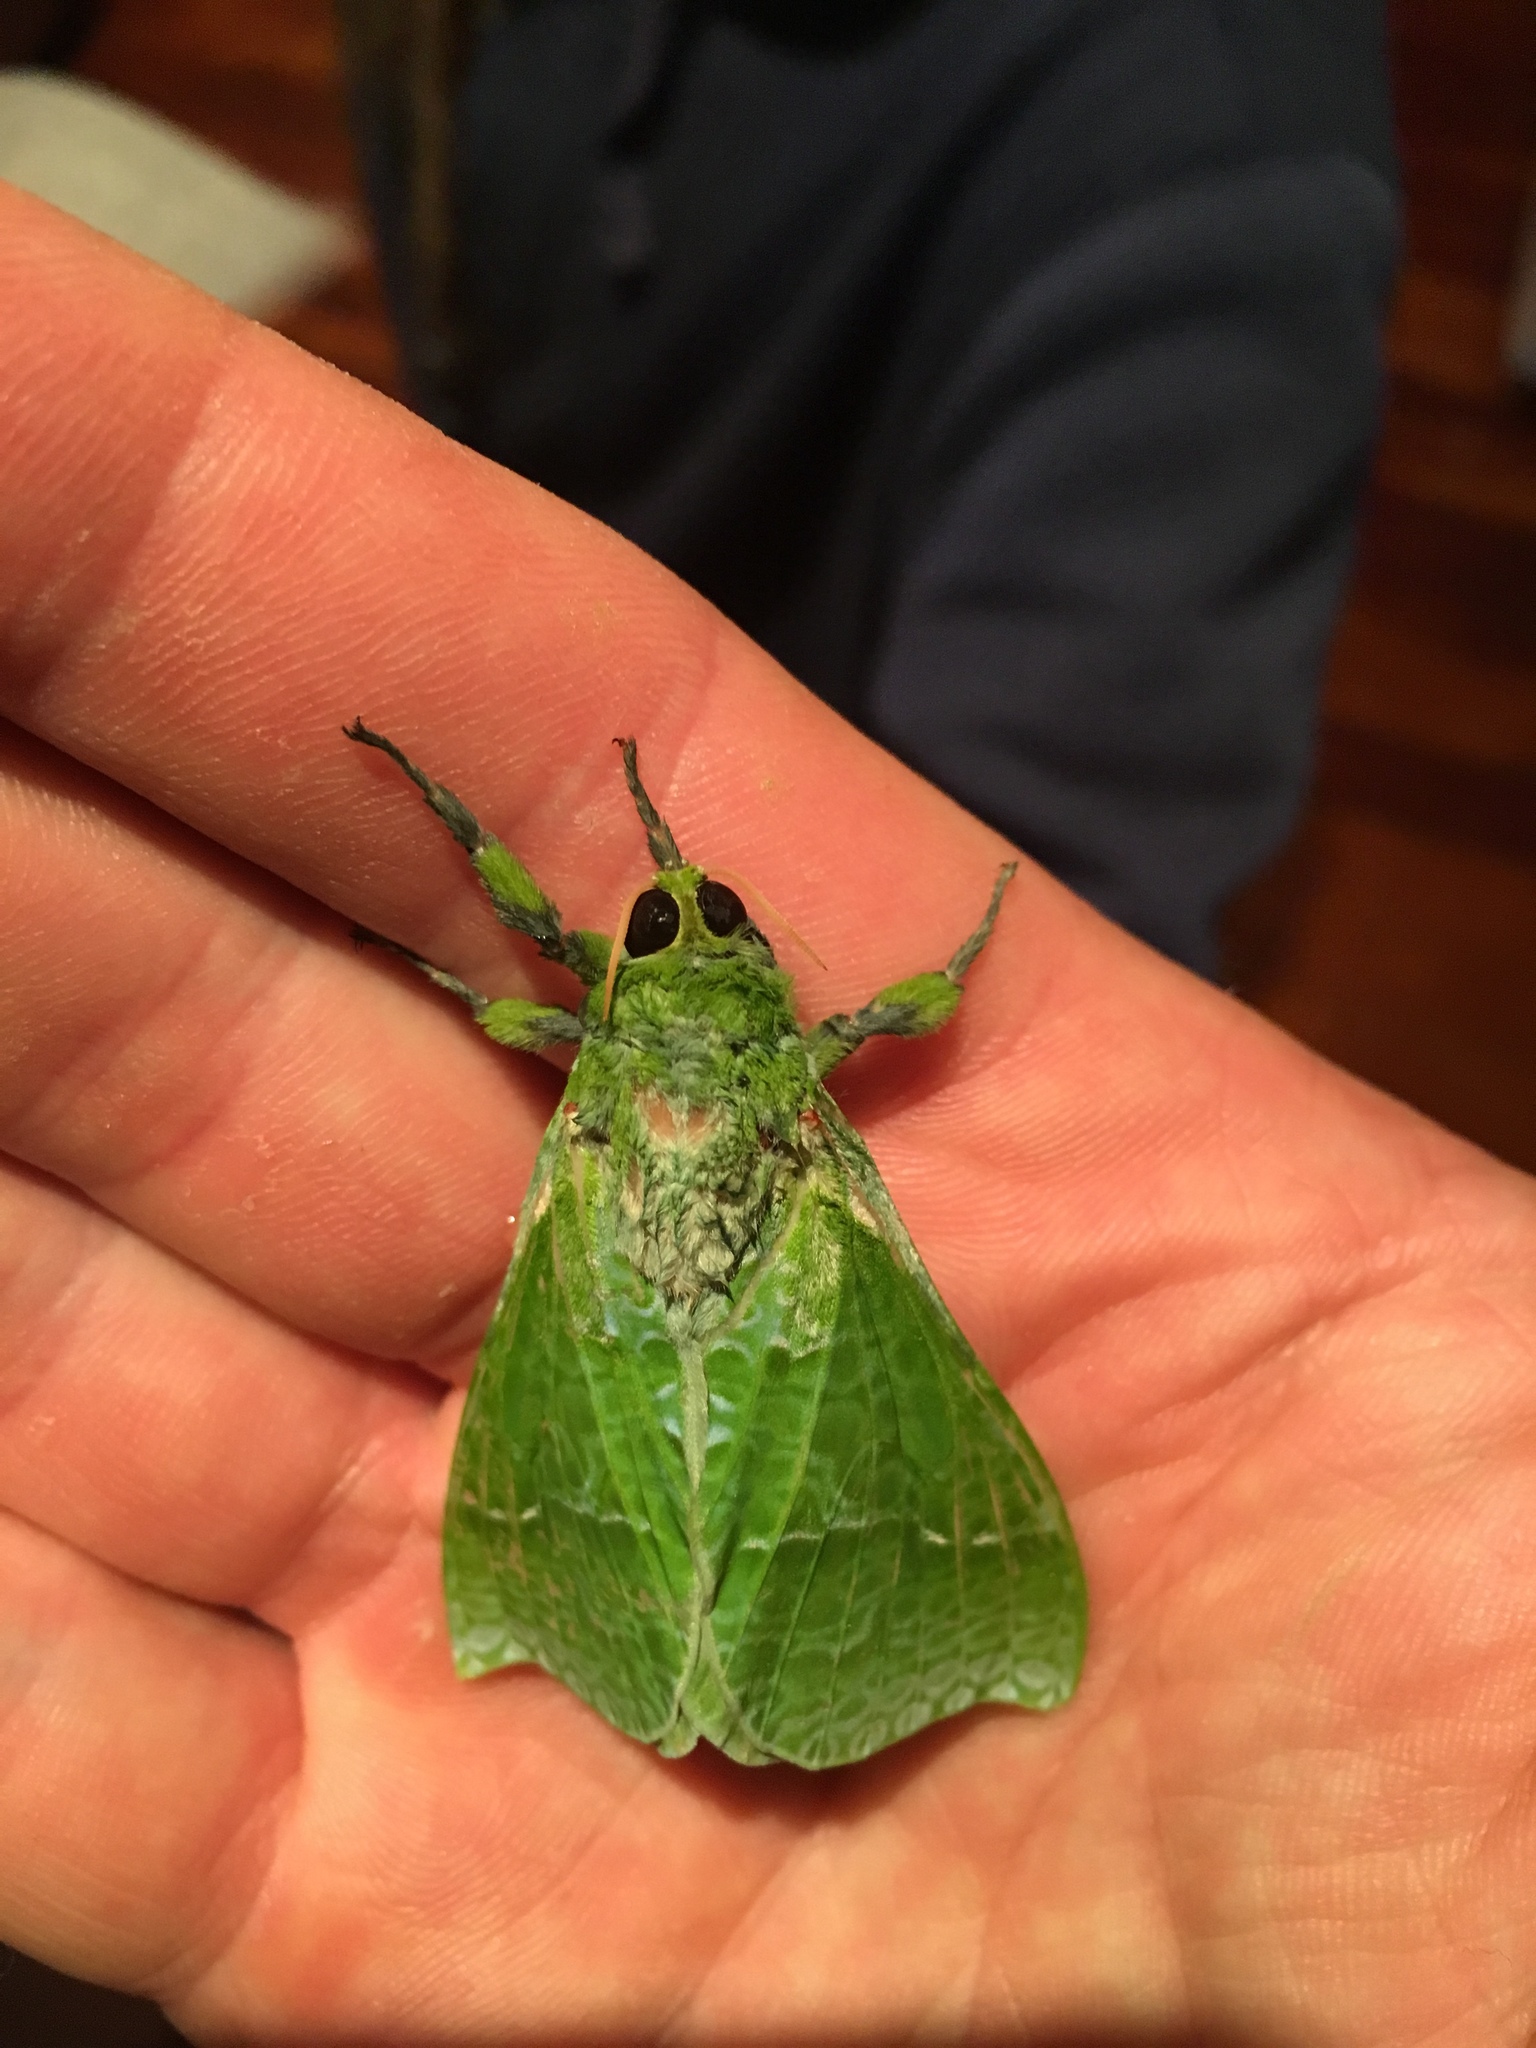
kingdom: Animalia
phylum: Arthropoda
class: Insecta
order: Lepidoptera
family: Hepialidae
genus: Aenetus
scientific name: Aenetus virescens
